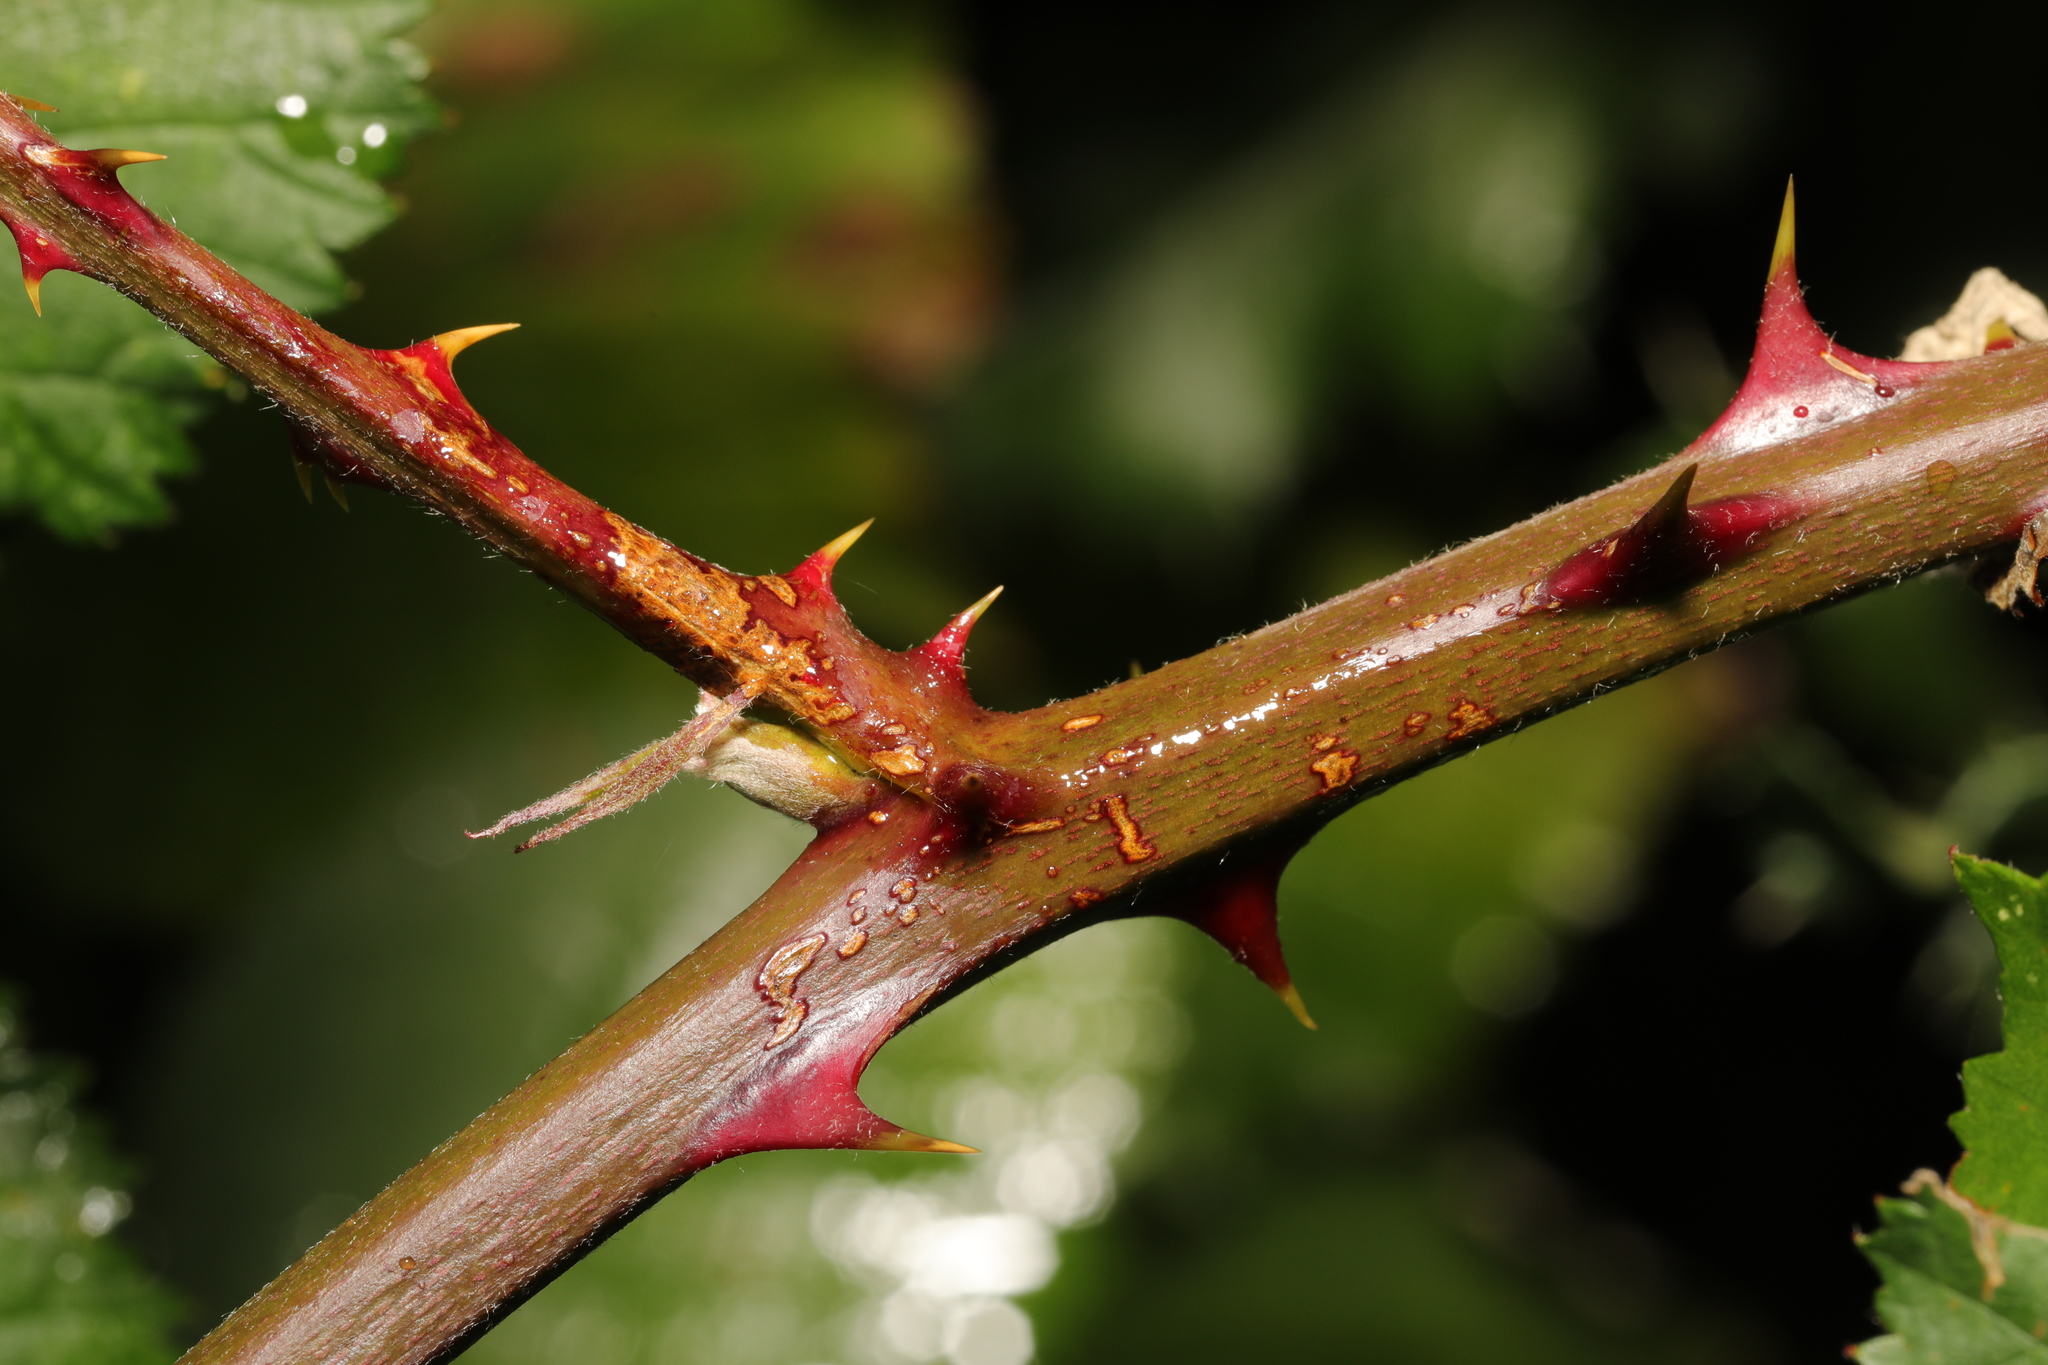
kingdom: Plantae
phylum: Tracheophyta
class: Magnoliopsida
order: Rosales
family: Rosaceae
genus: Rubus
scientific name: Rubus armeniacus
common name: Himalayan blackberry
